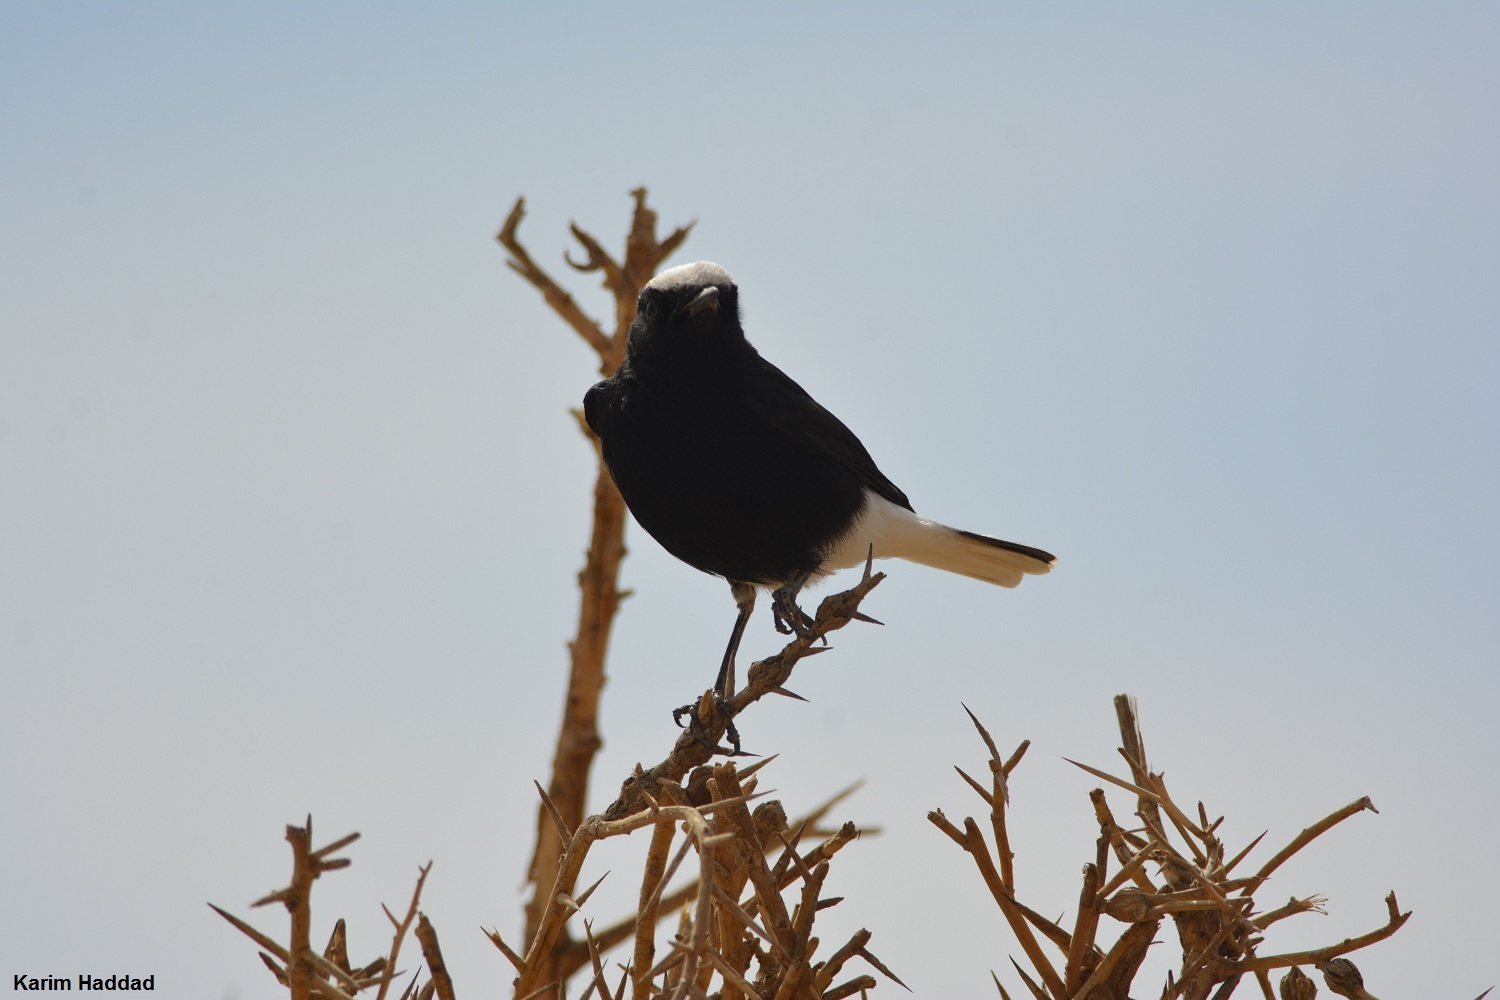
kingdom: Animalia
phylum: Chordata
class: Aves
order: Passeriformes
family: Muscicapidae
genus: Oenanthe
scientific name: Oenanthe leucopyga
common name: White-crowned wheatear
